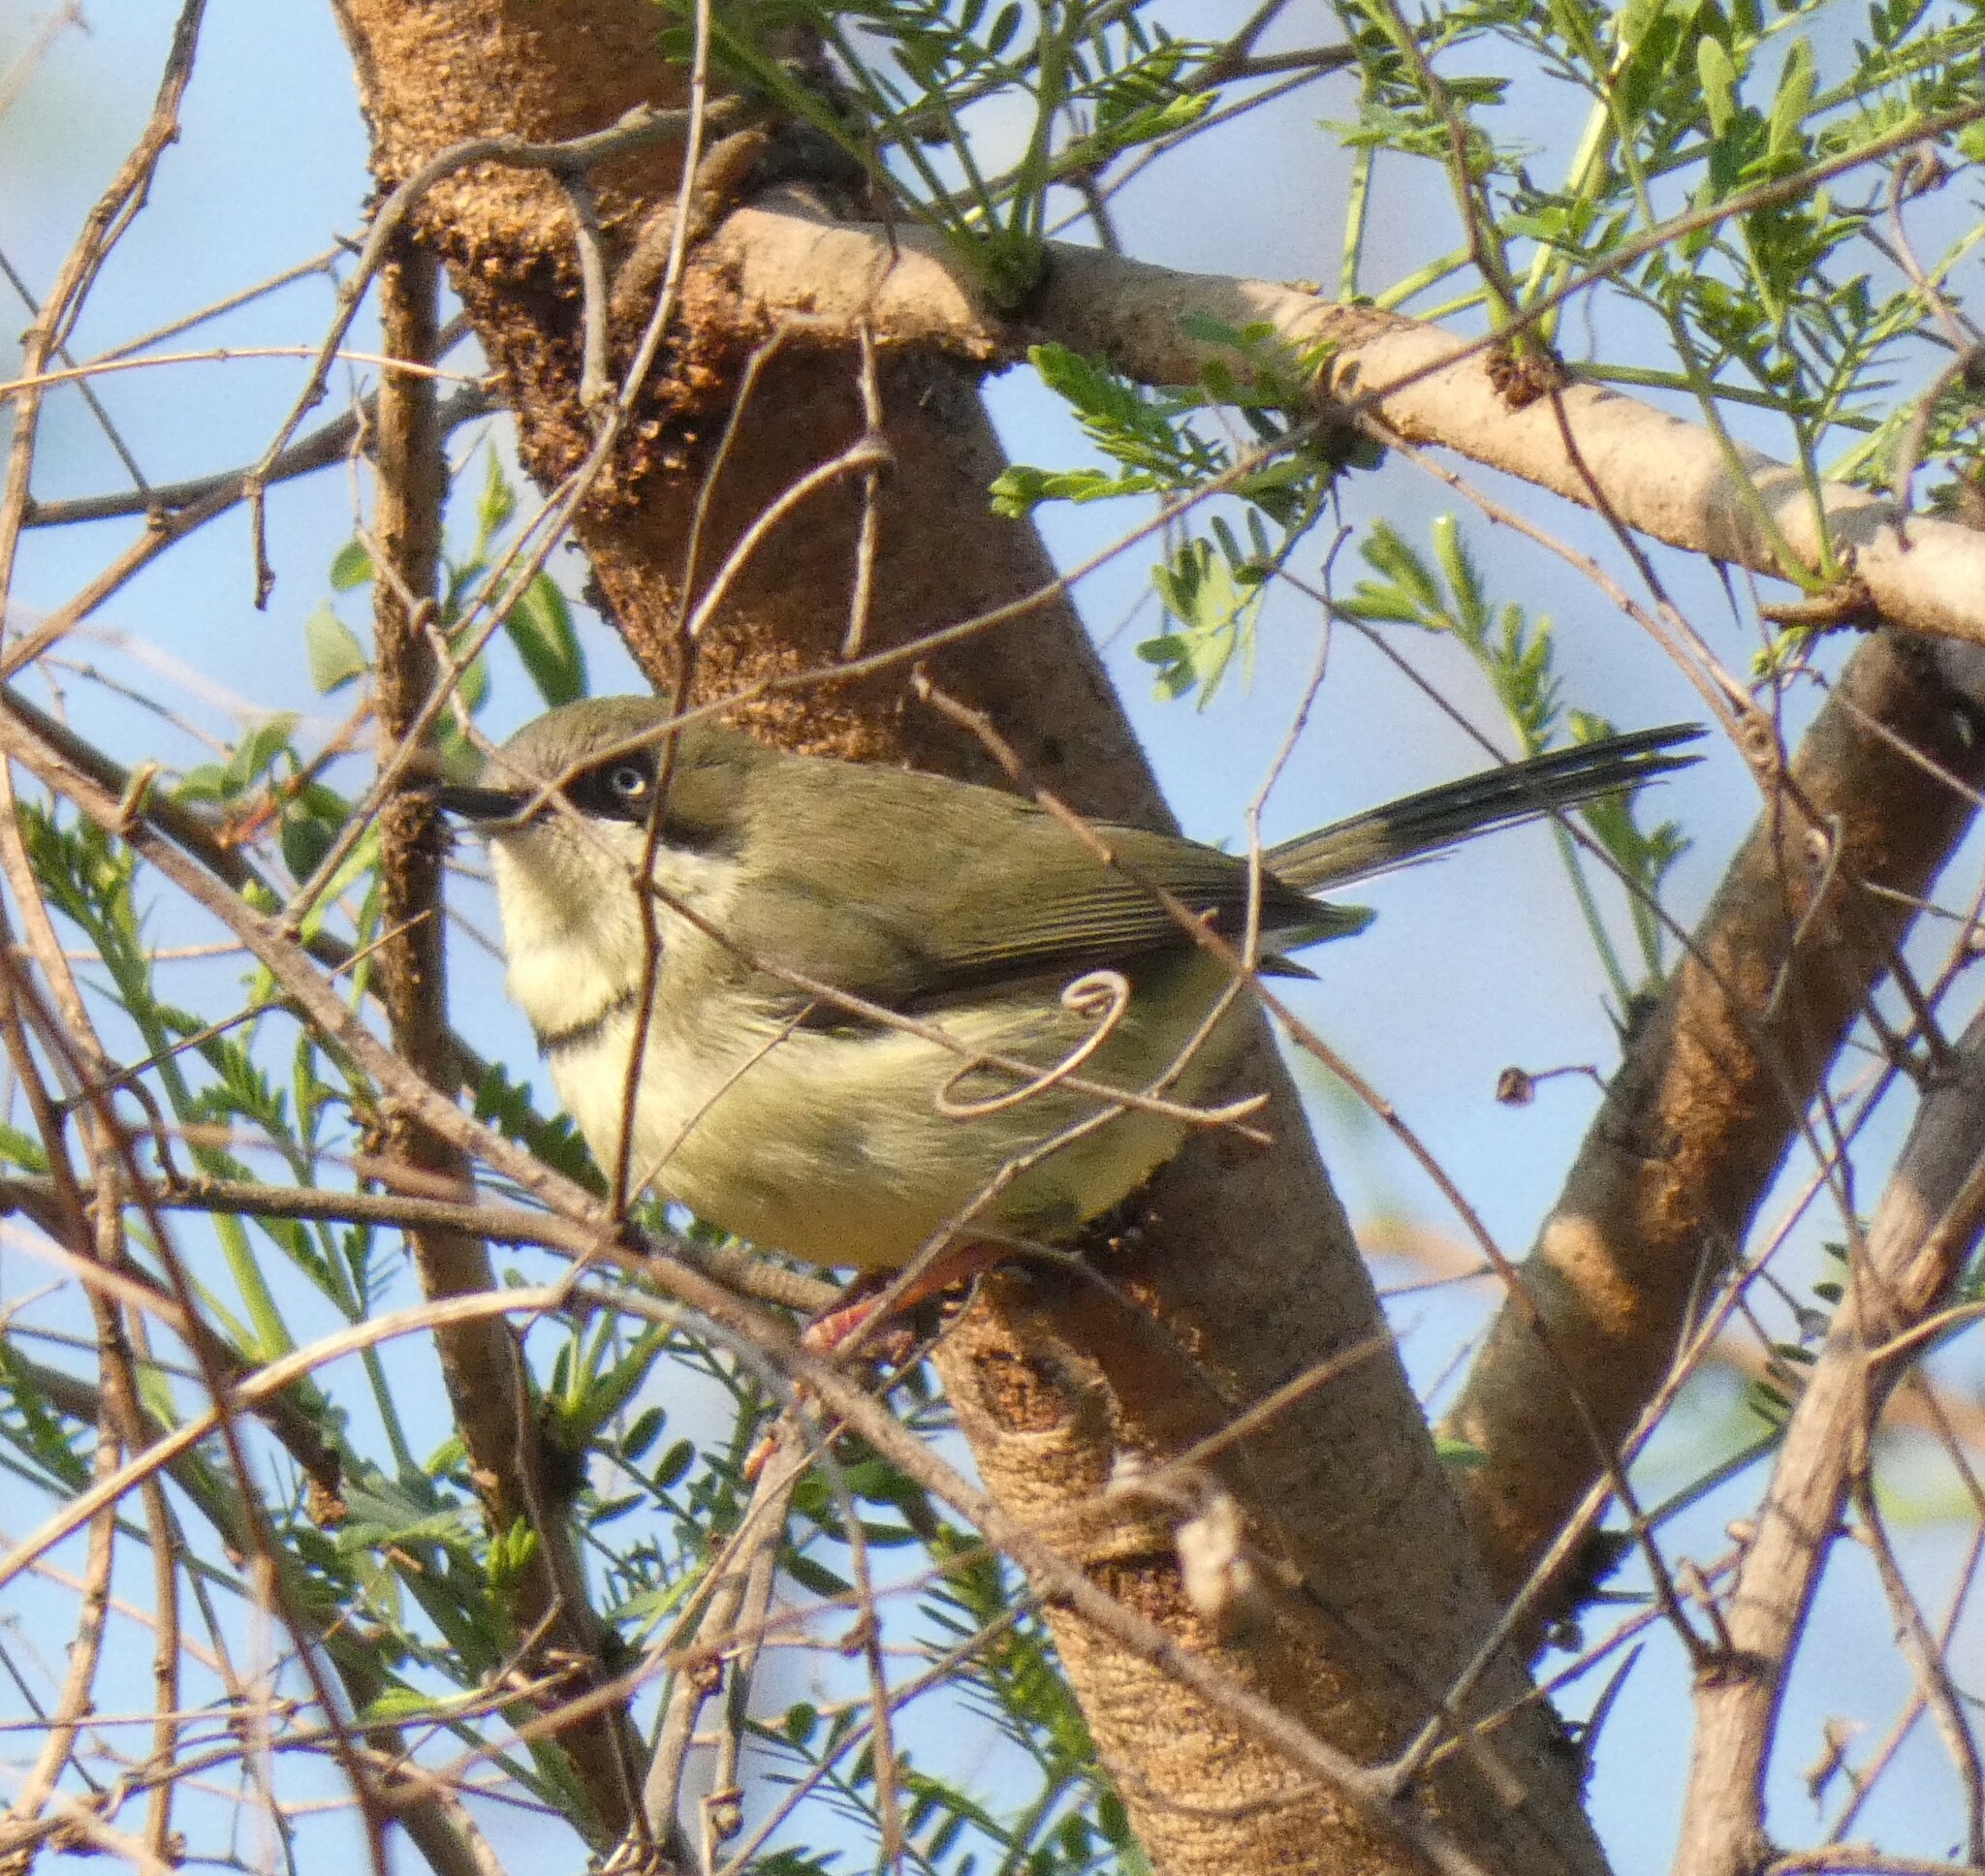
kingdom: Animalia
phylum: Chordata
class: Aves
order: Passeriformes
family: Cisticolidae
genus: Apalis
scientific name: Apalis thoracica
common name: Bar-throated apalis
